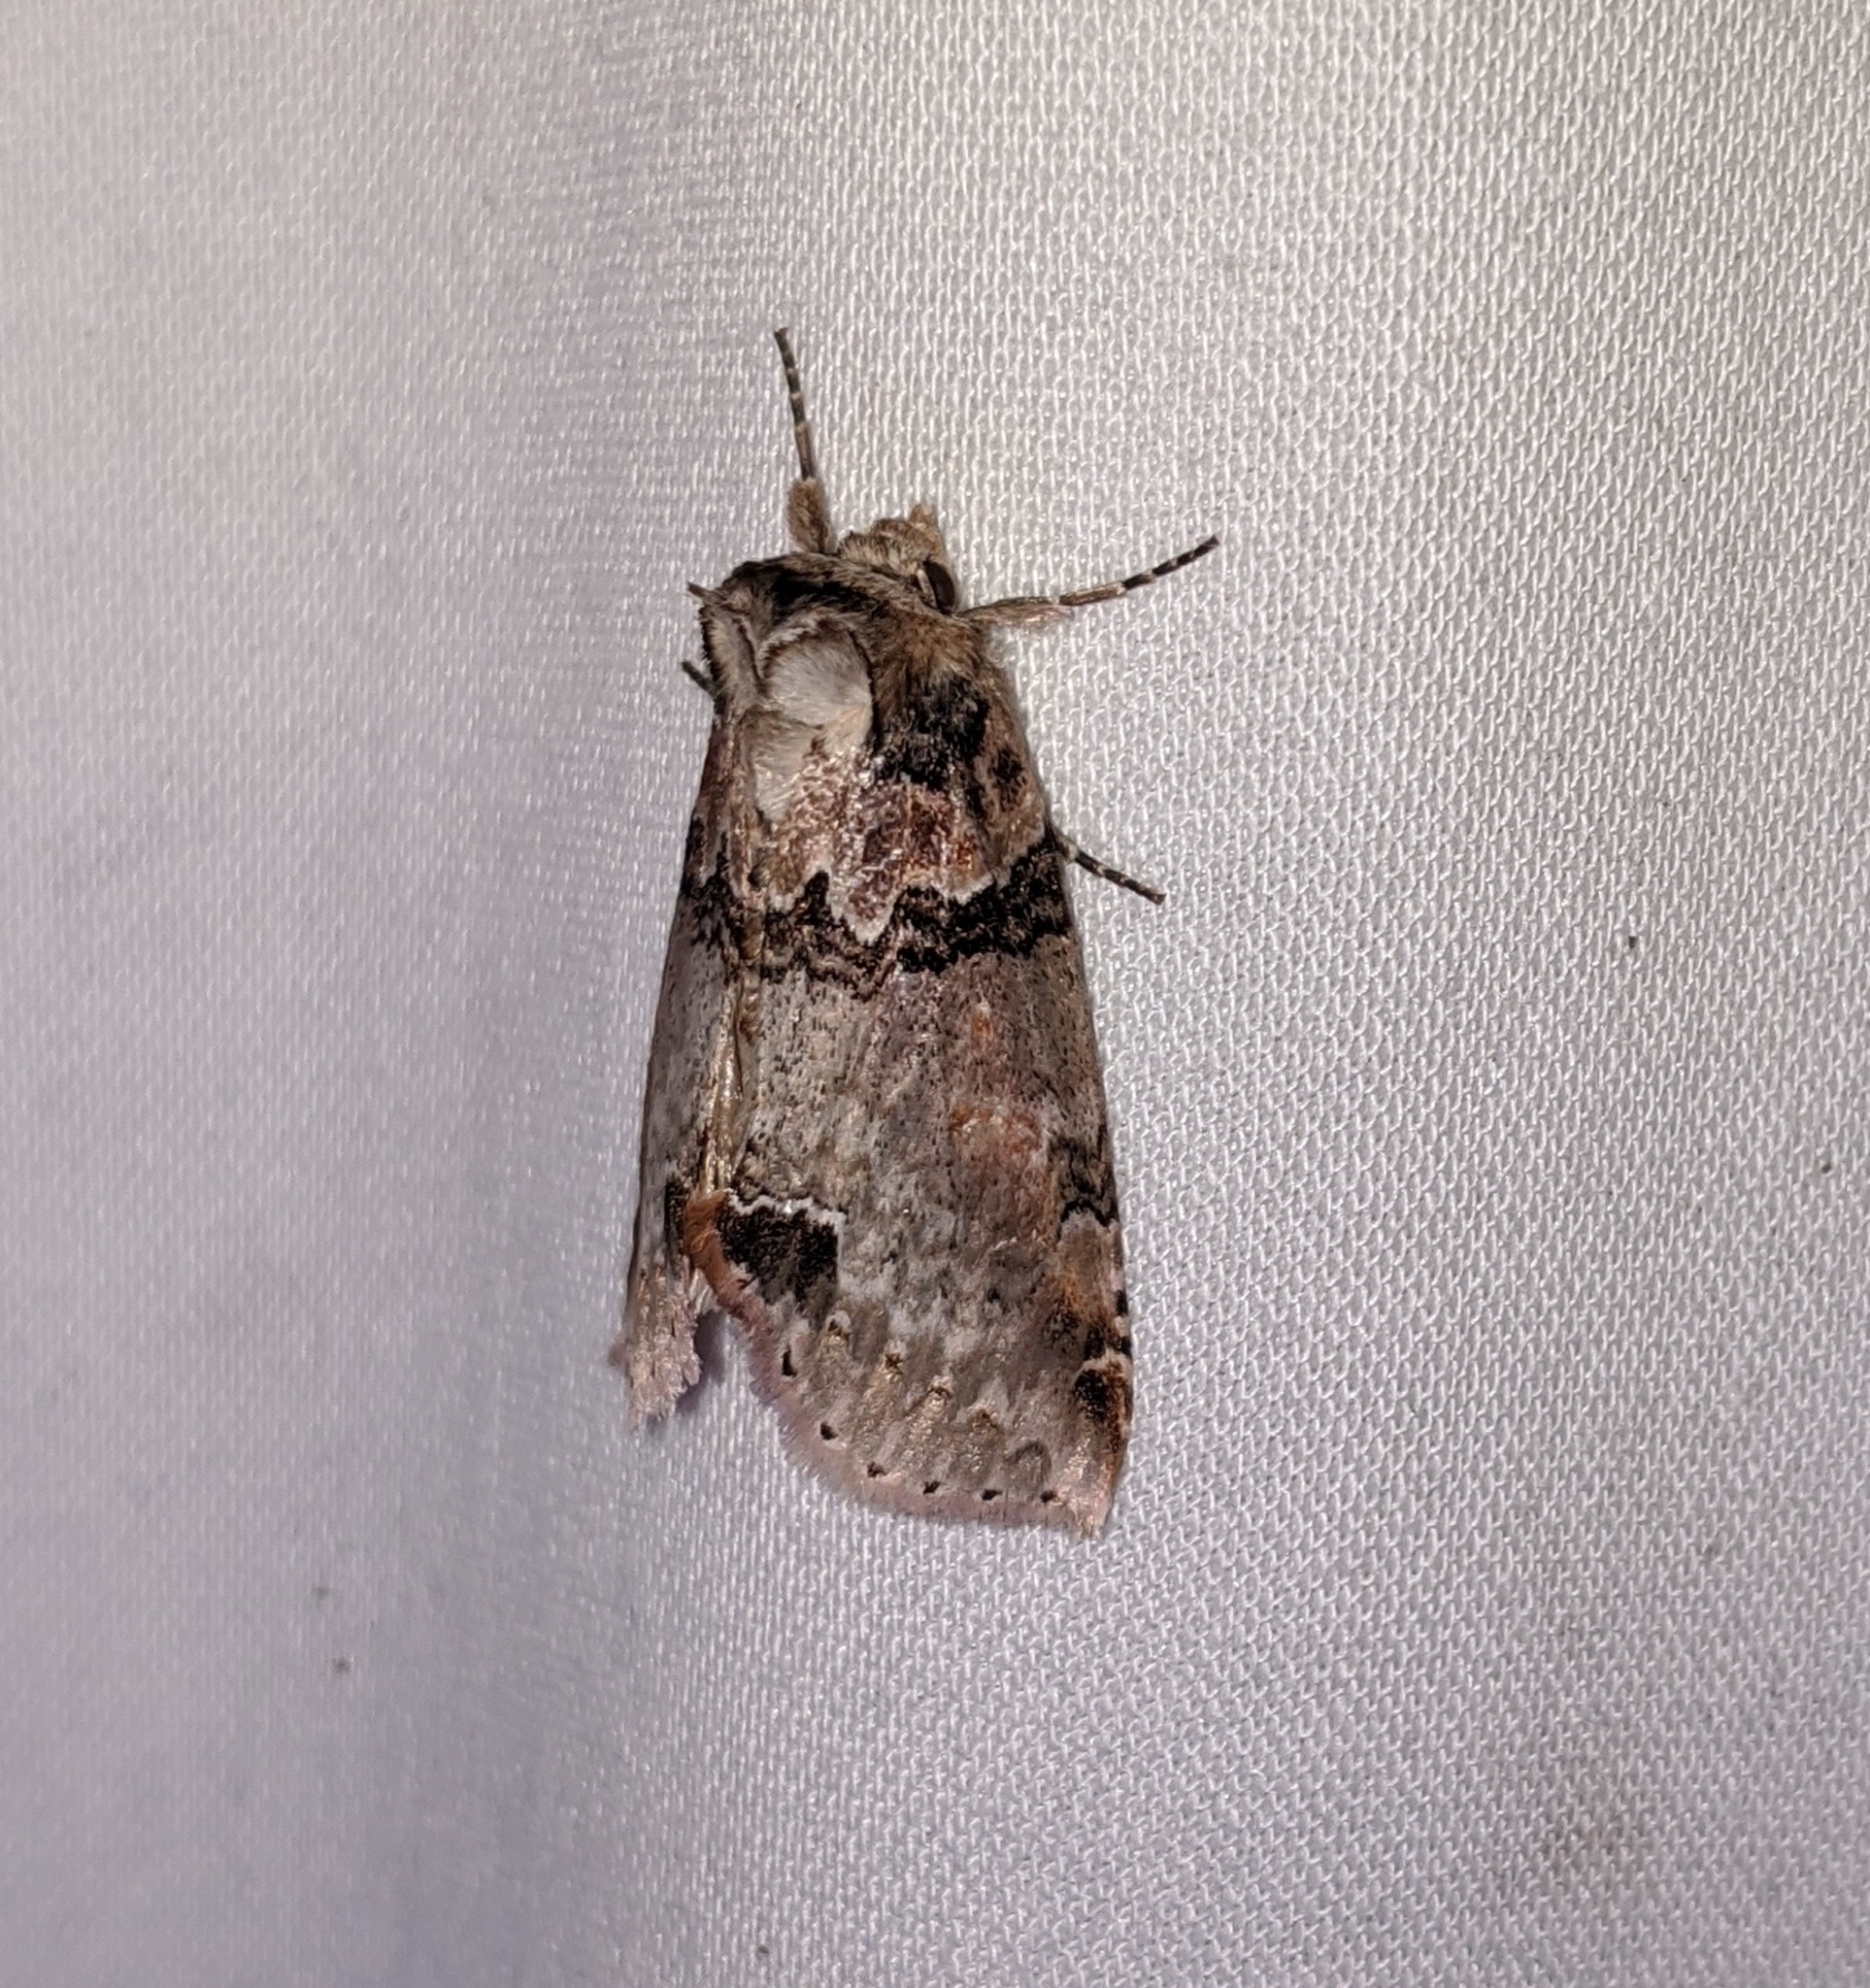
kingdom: Animalia
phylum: Arthropoda
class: Insecta
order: Lepidoptera
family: Drepanidae
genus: Pseudothyatira
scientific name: Pseudothyatira cymatophoroides
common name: Tufted thyatirid moth
